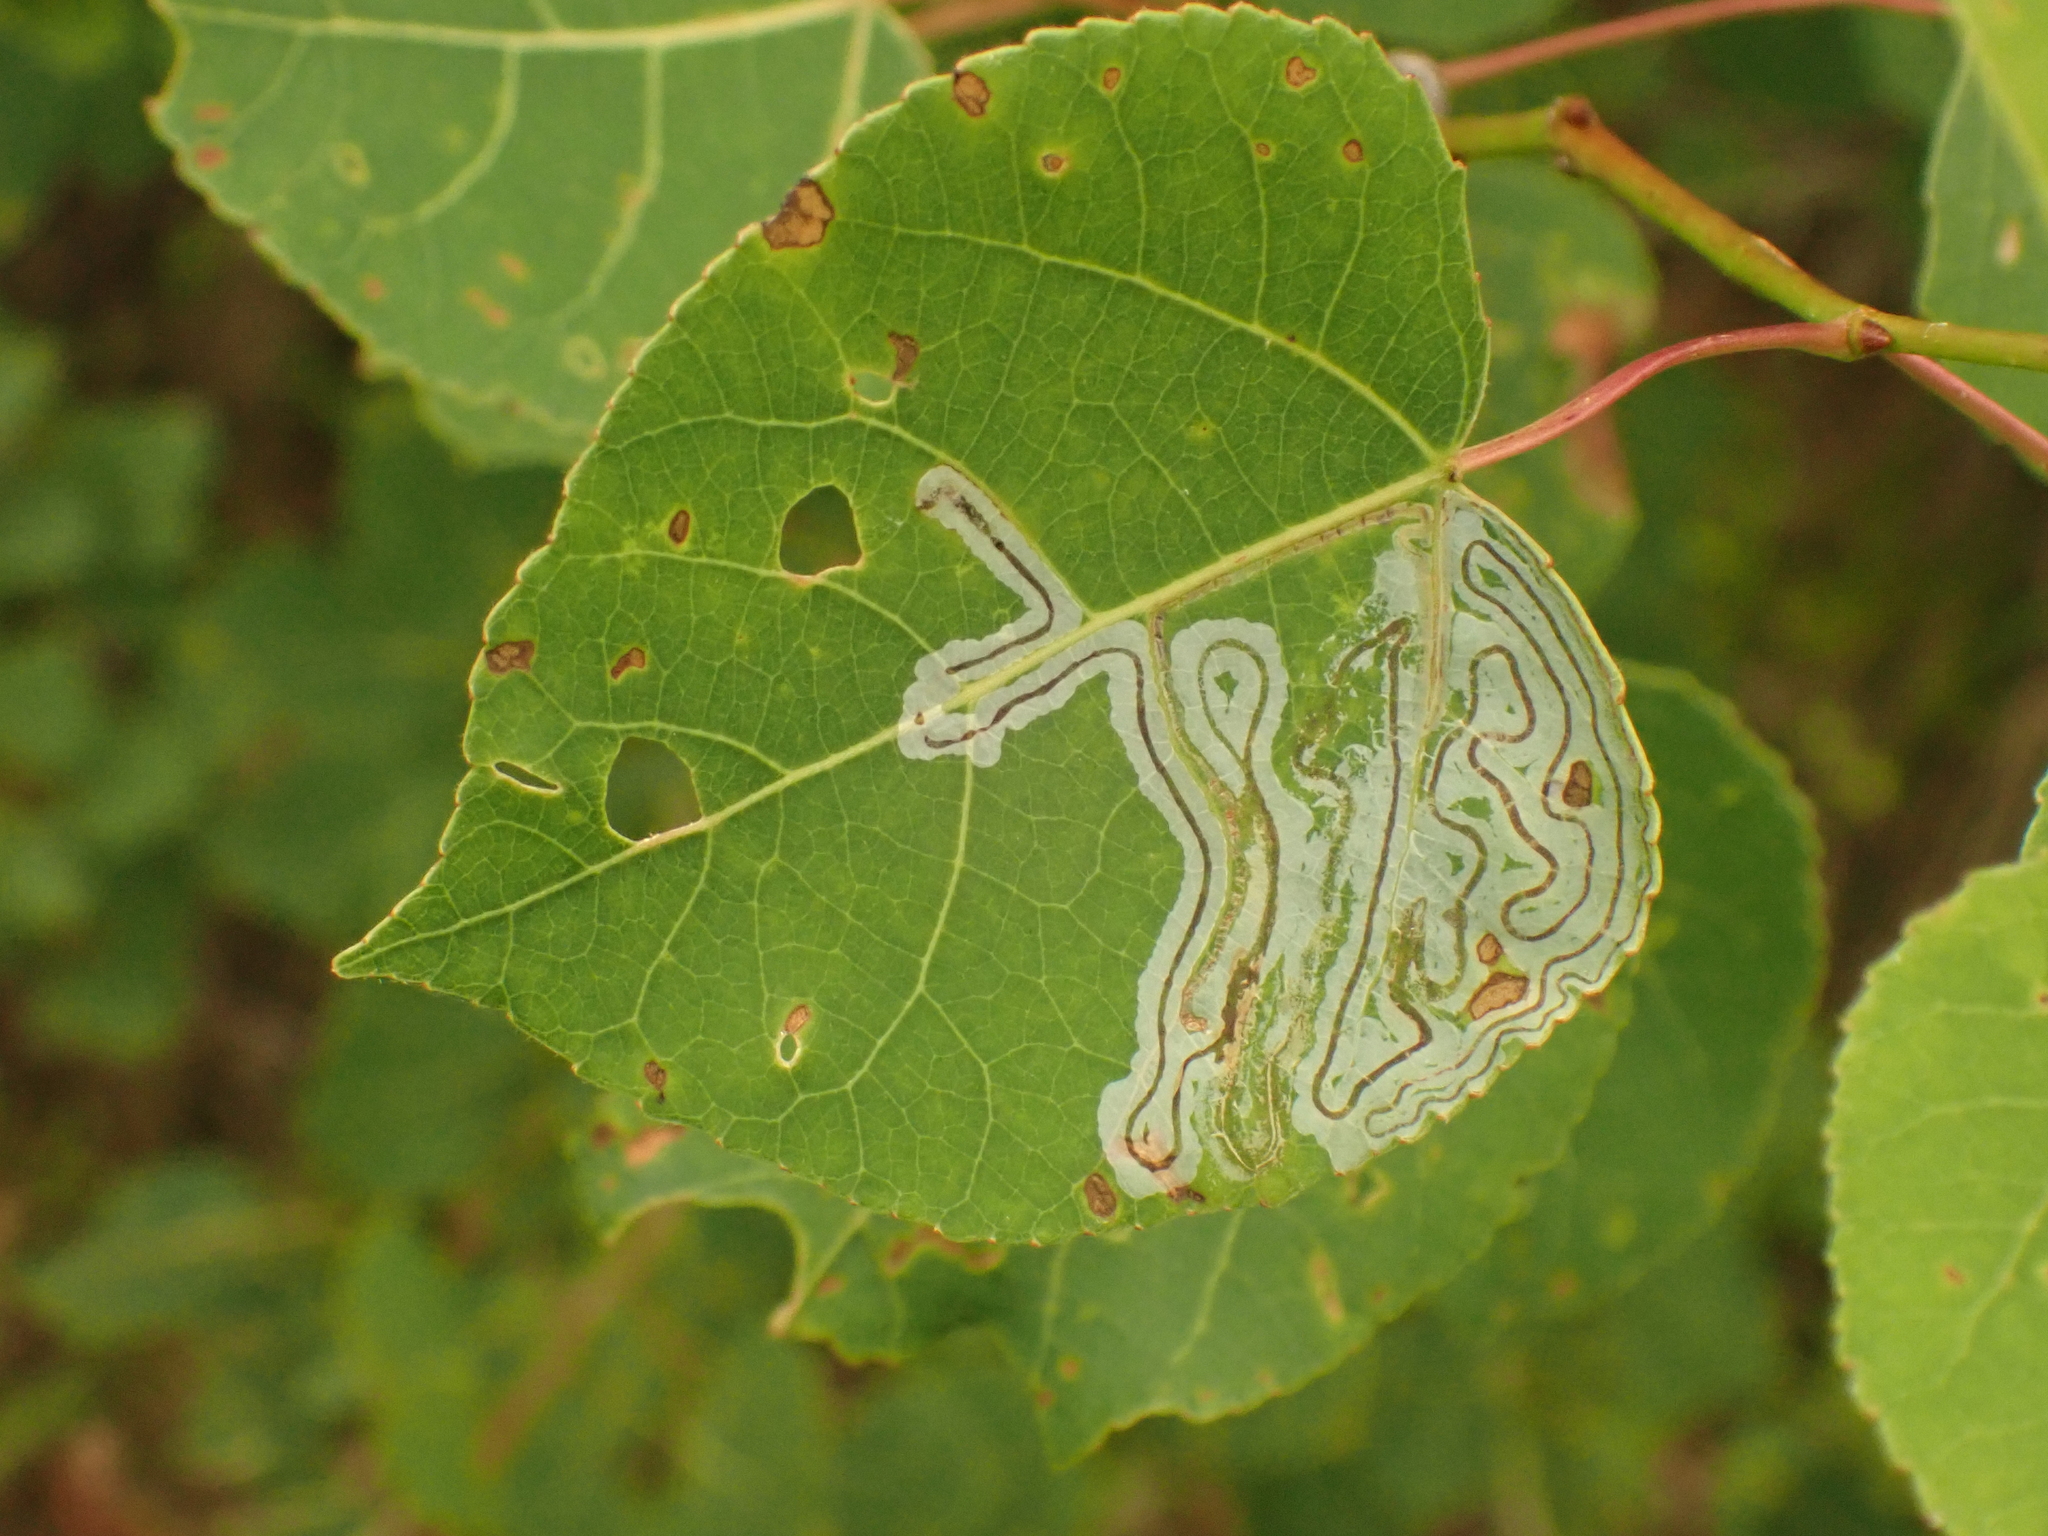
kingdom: Animalia
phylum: Arthropoda
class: Insecta
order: Lepidoptera
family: Gracillariidae
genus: Phyllocnistis
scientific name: Phyllocnistis populiella
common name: Aspen serpentine leafminer moth
